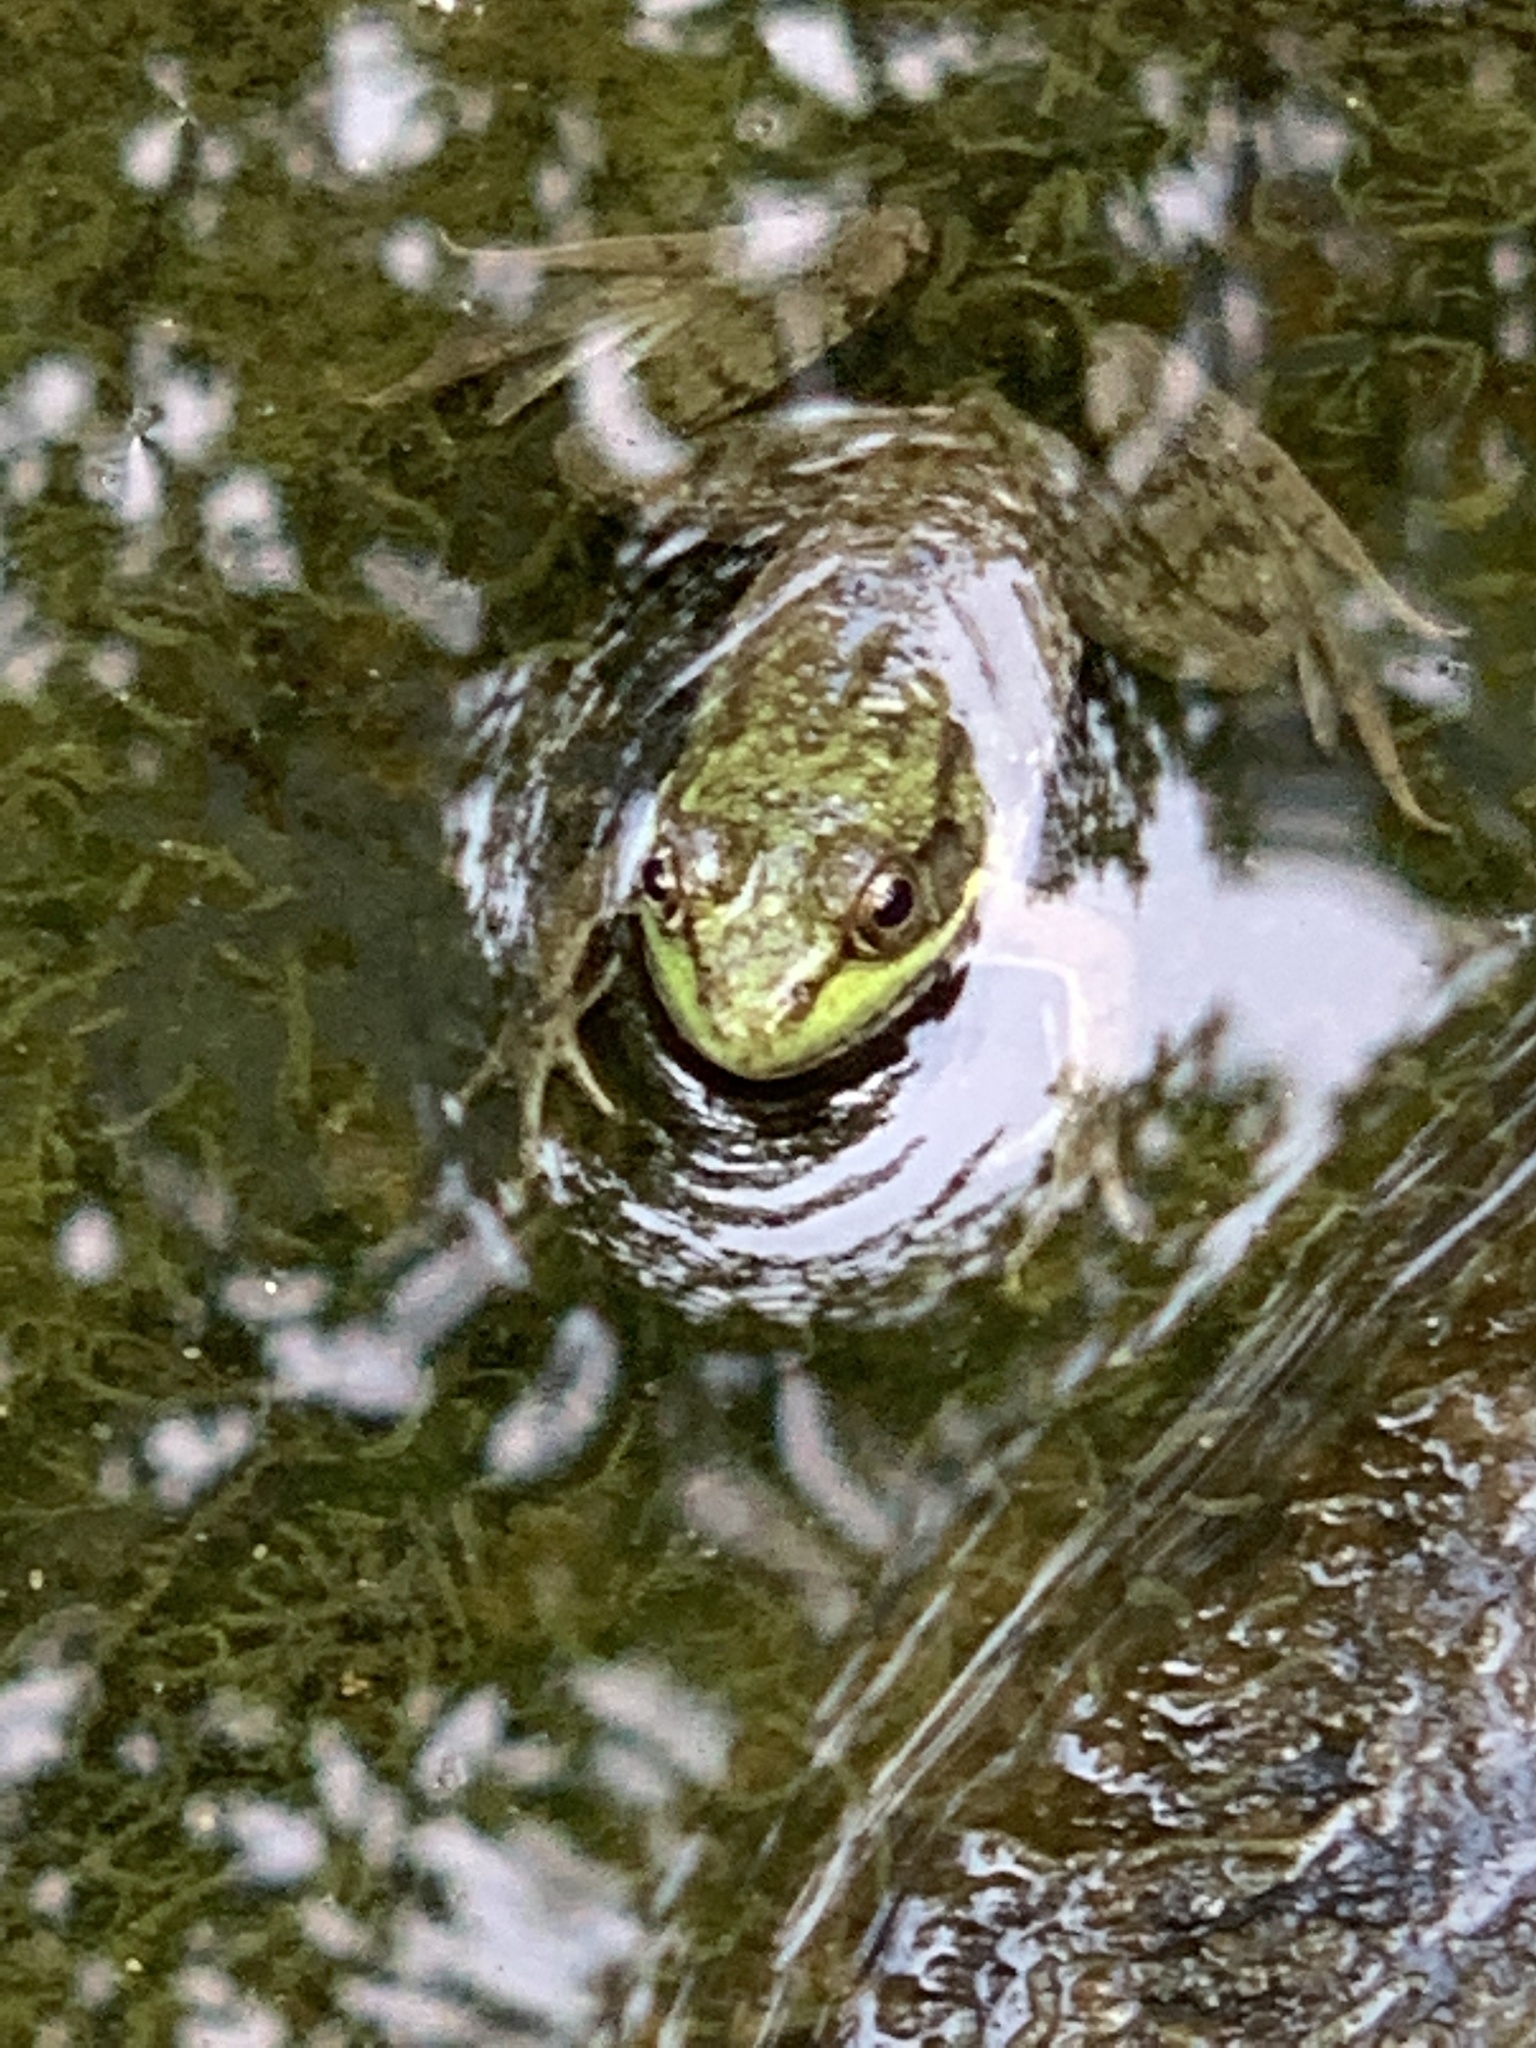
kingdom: Animalia
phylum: Chordata
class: Amphibia
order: Anura
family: Ranidae
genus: Lithobates
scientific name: Lithobates clamitans
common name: Green frog
